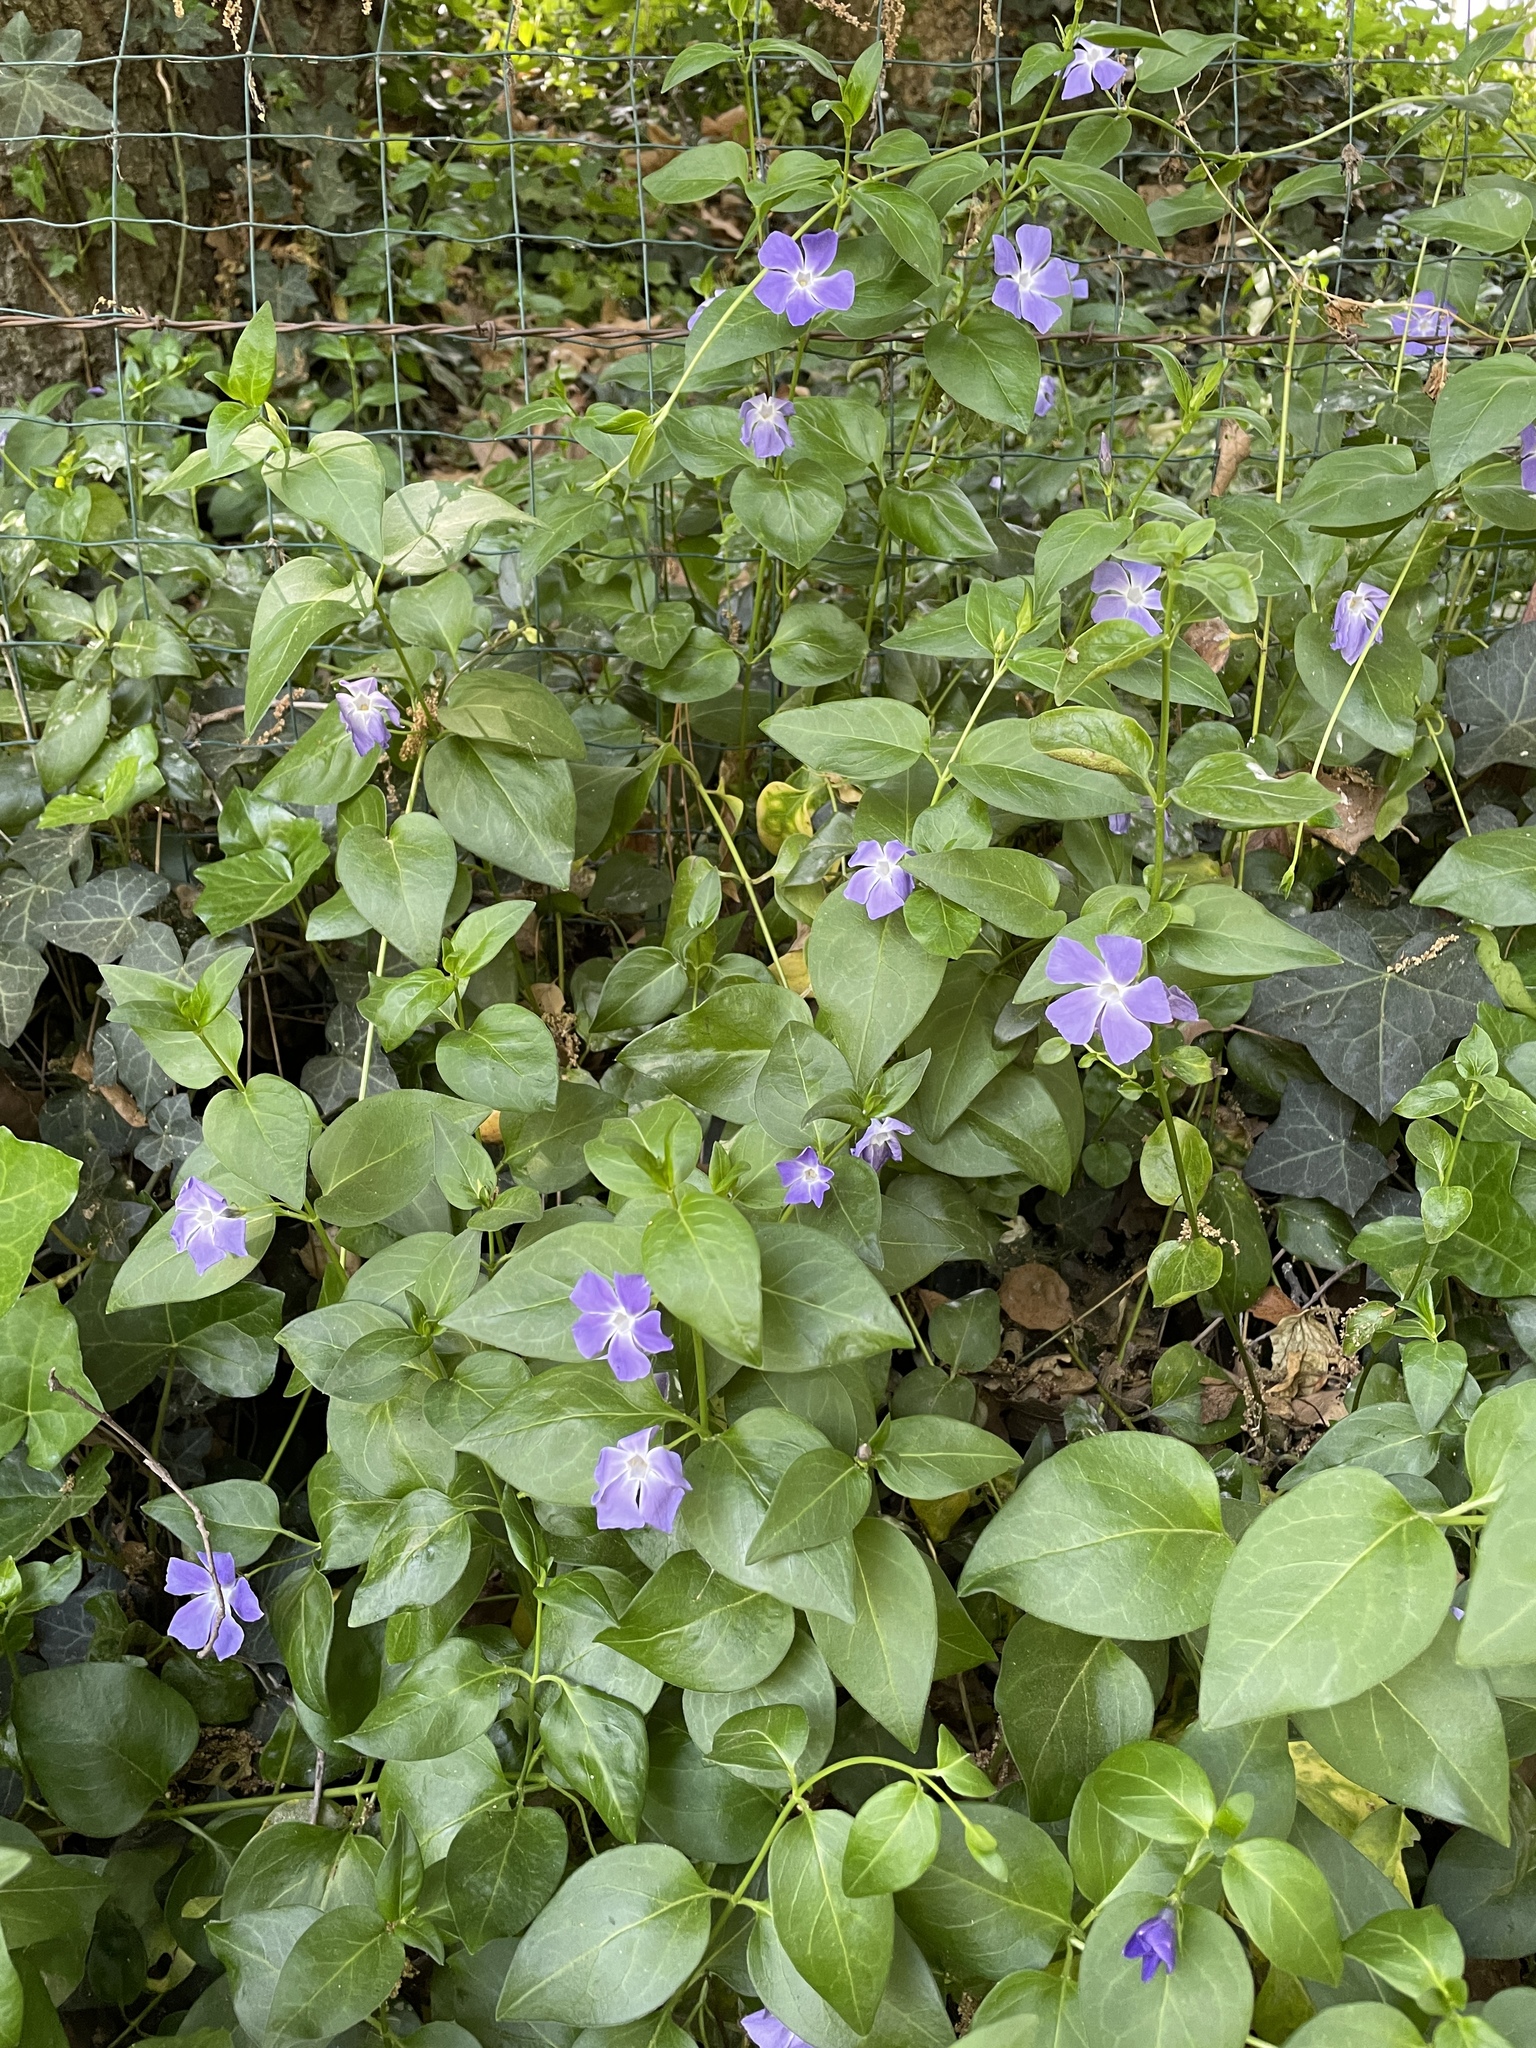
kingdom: Plantae
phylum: Tracheophyta
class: Magnoliopsida
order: Gentianales
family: Apocynaceae
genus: Vinca
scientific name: Vinca major
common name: Greater periwinkle
